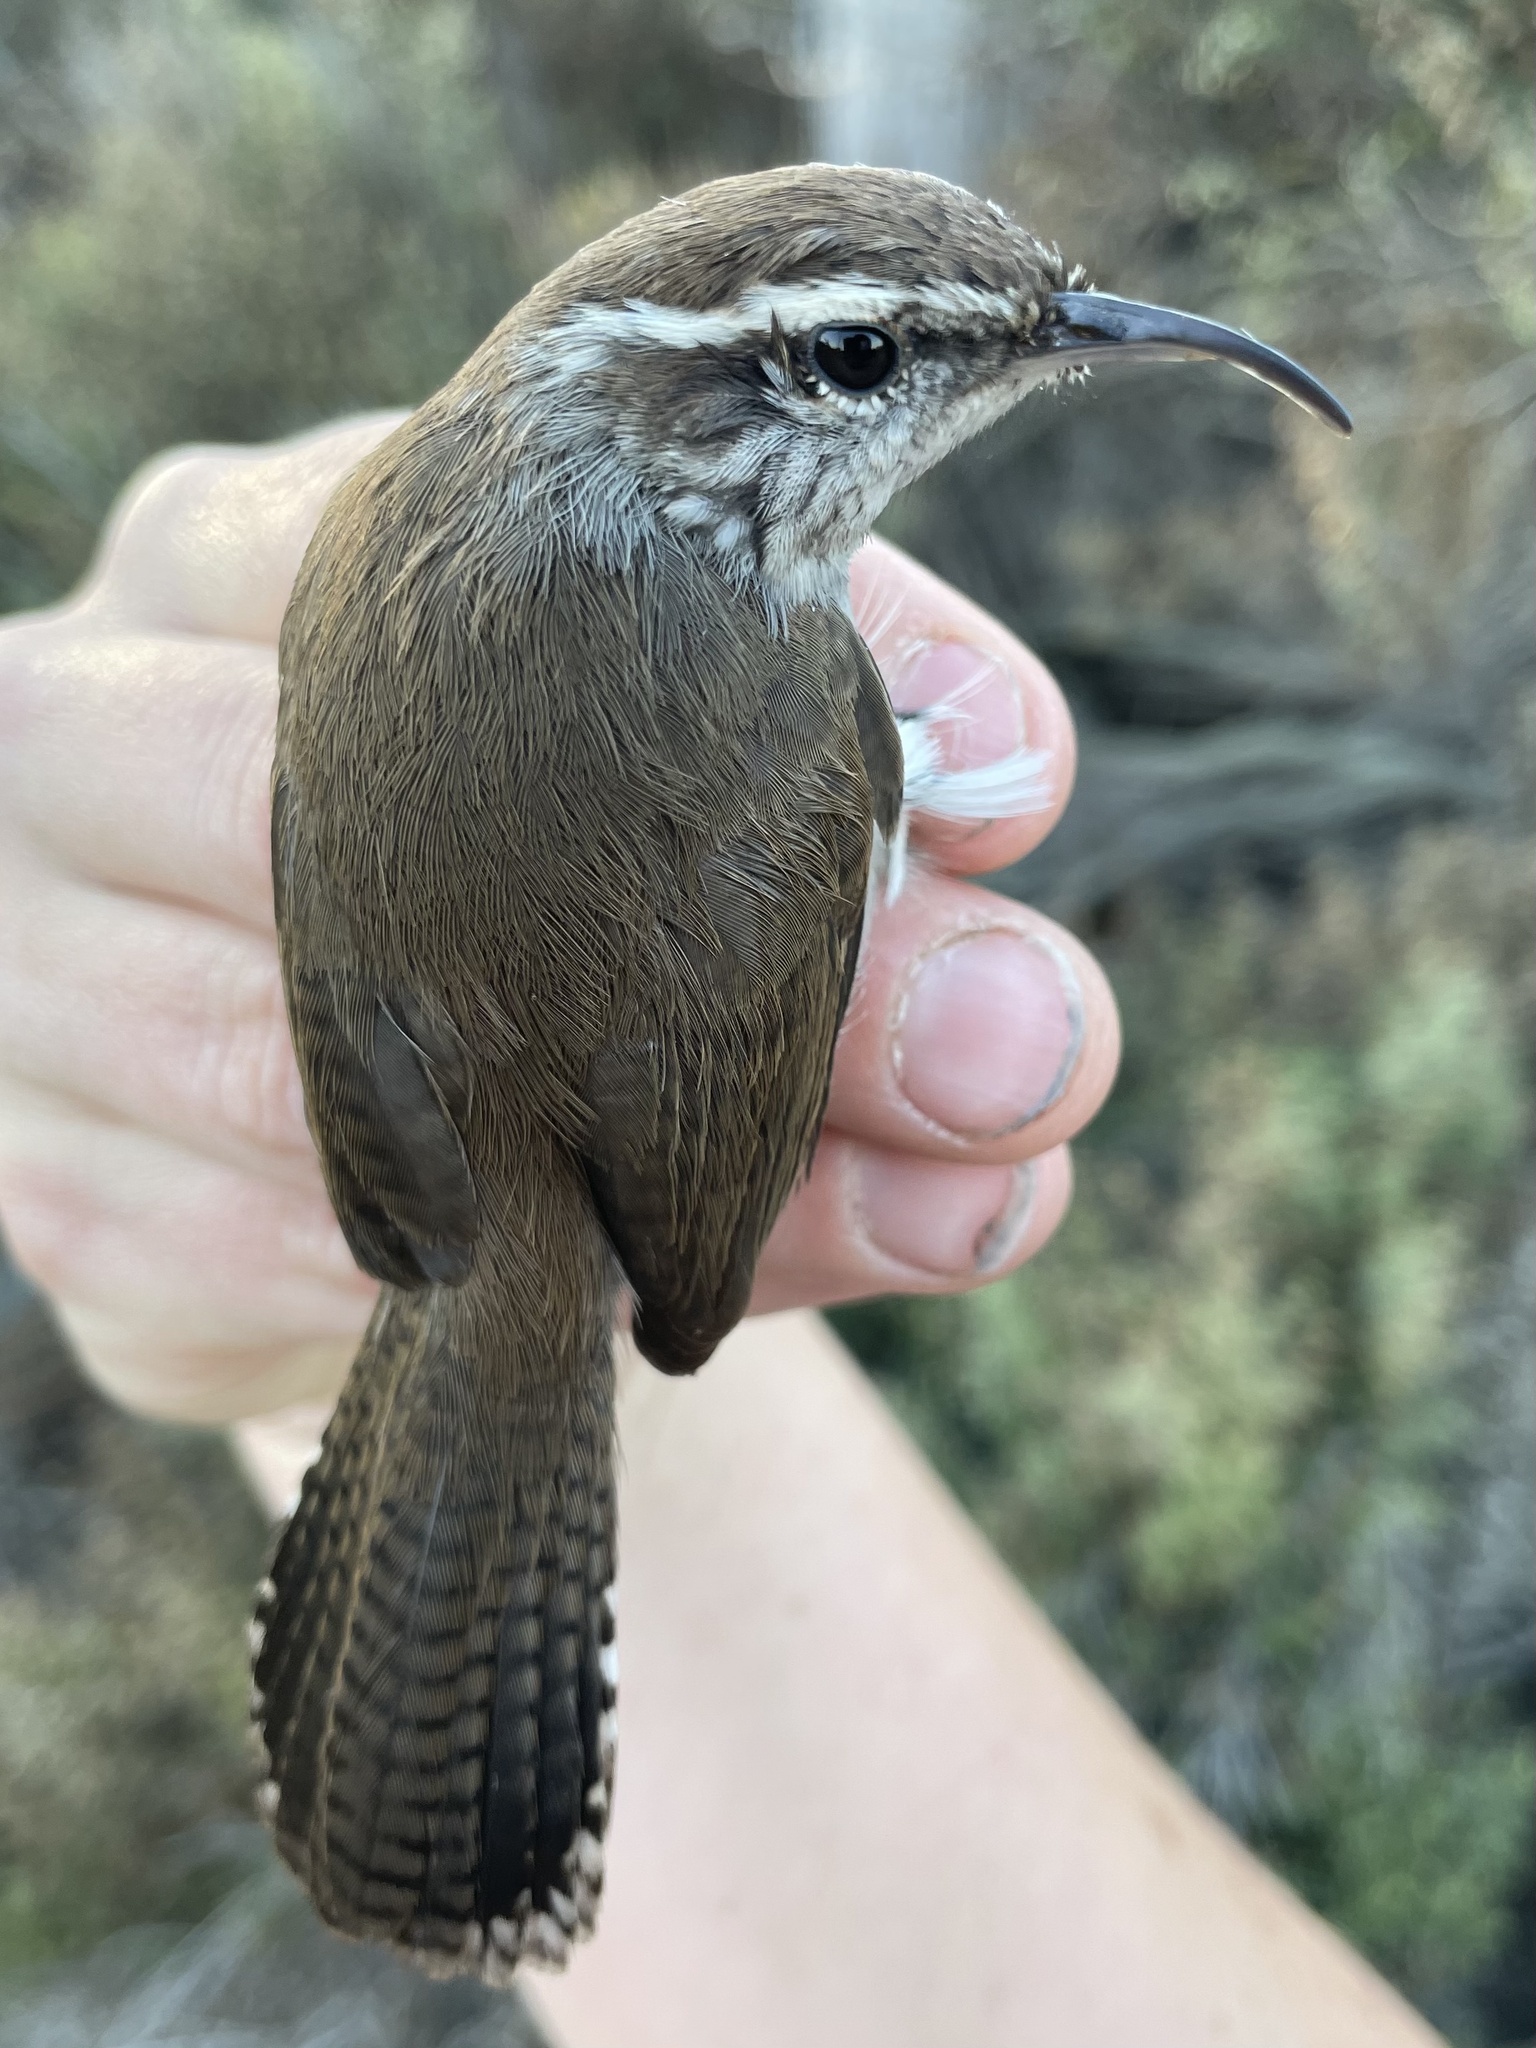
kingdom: Animalia
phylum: Chordata
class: Aves
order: Passeriformes
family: Troglodytidae
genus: Thryomanes
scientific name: Thryomanes bewickii
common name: Bewick's wren
